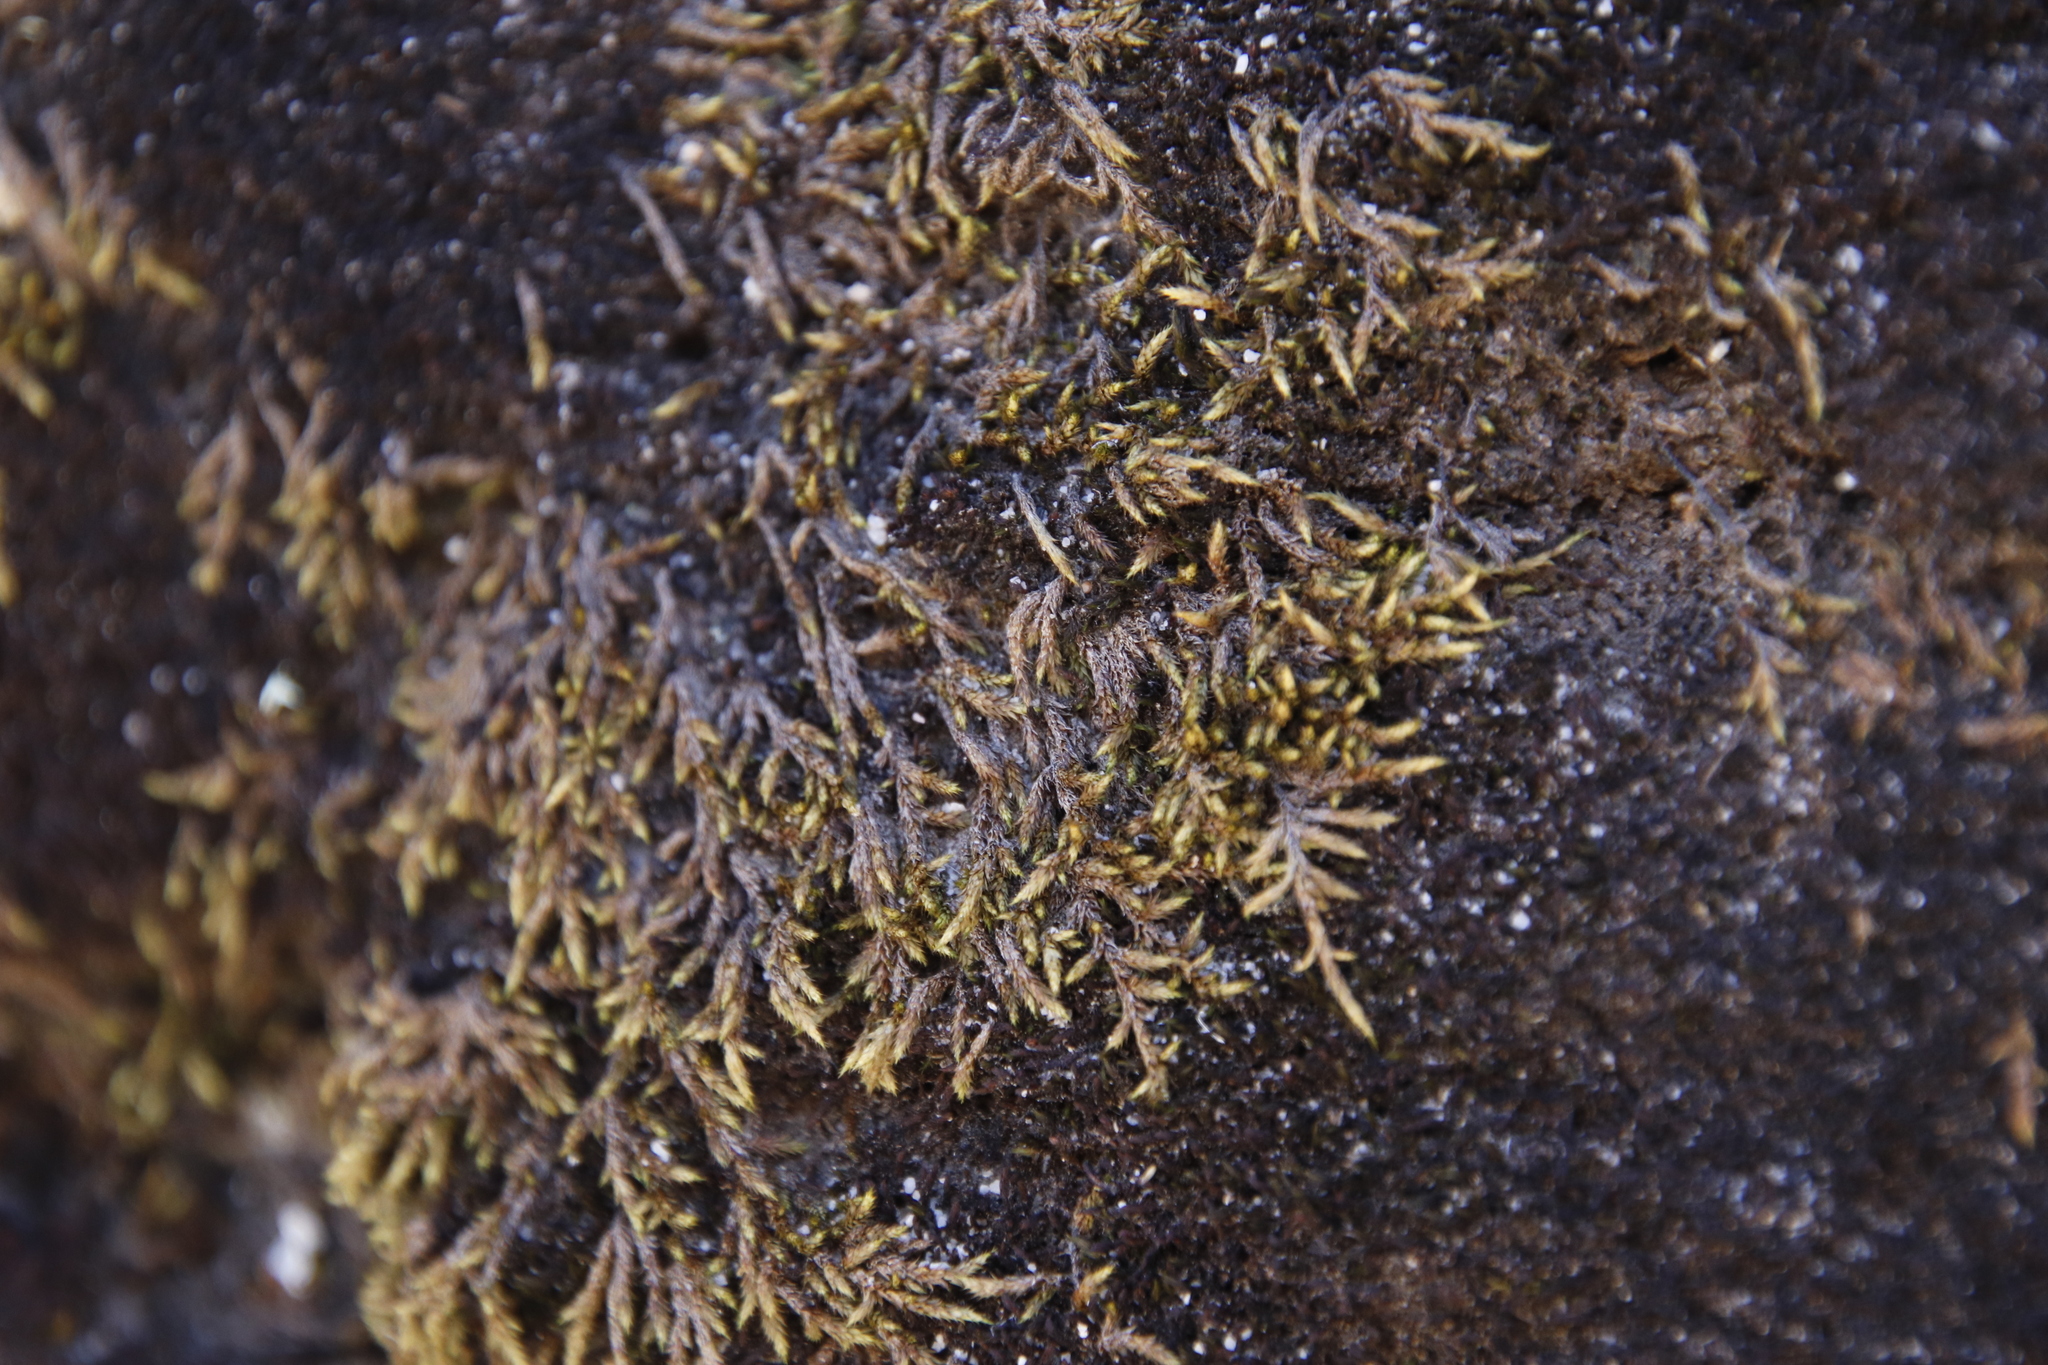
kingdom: Plantae
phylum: Bryophyta
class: Bryopsida
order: Hedwigiales
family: Hedwigiaceae
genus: Rhacocarpus
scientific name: Rhacocarpus purpurascens
